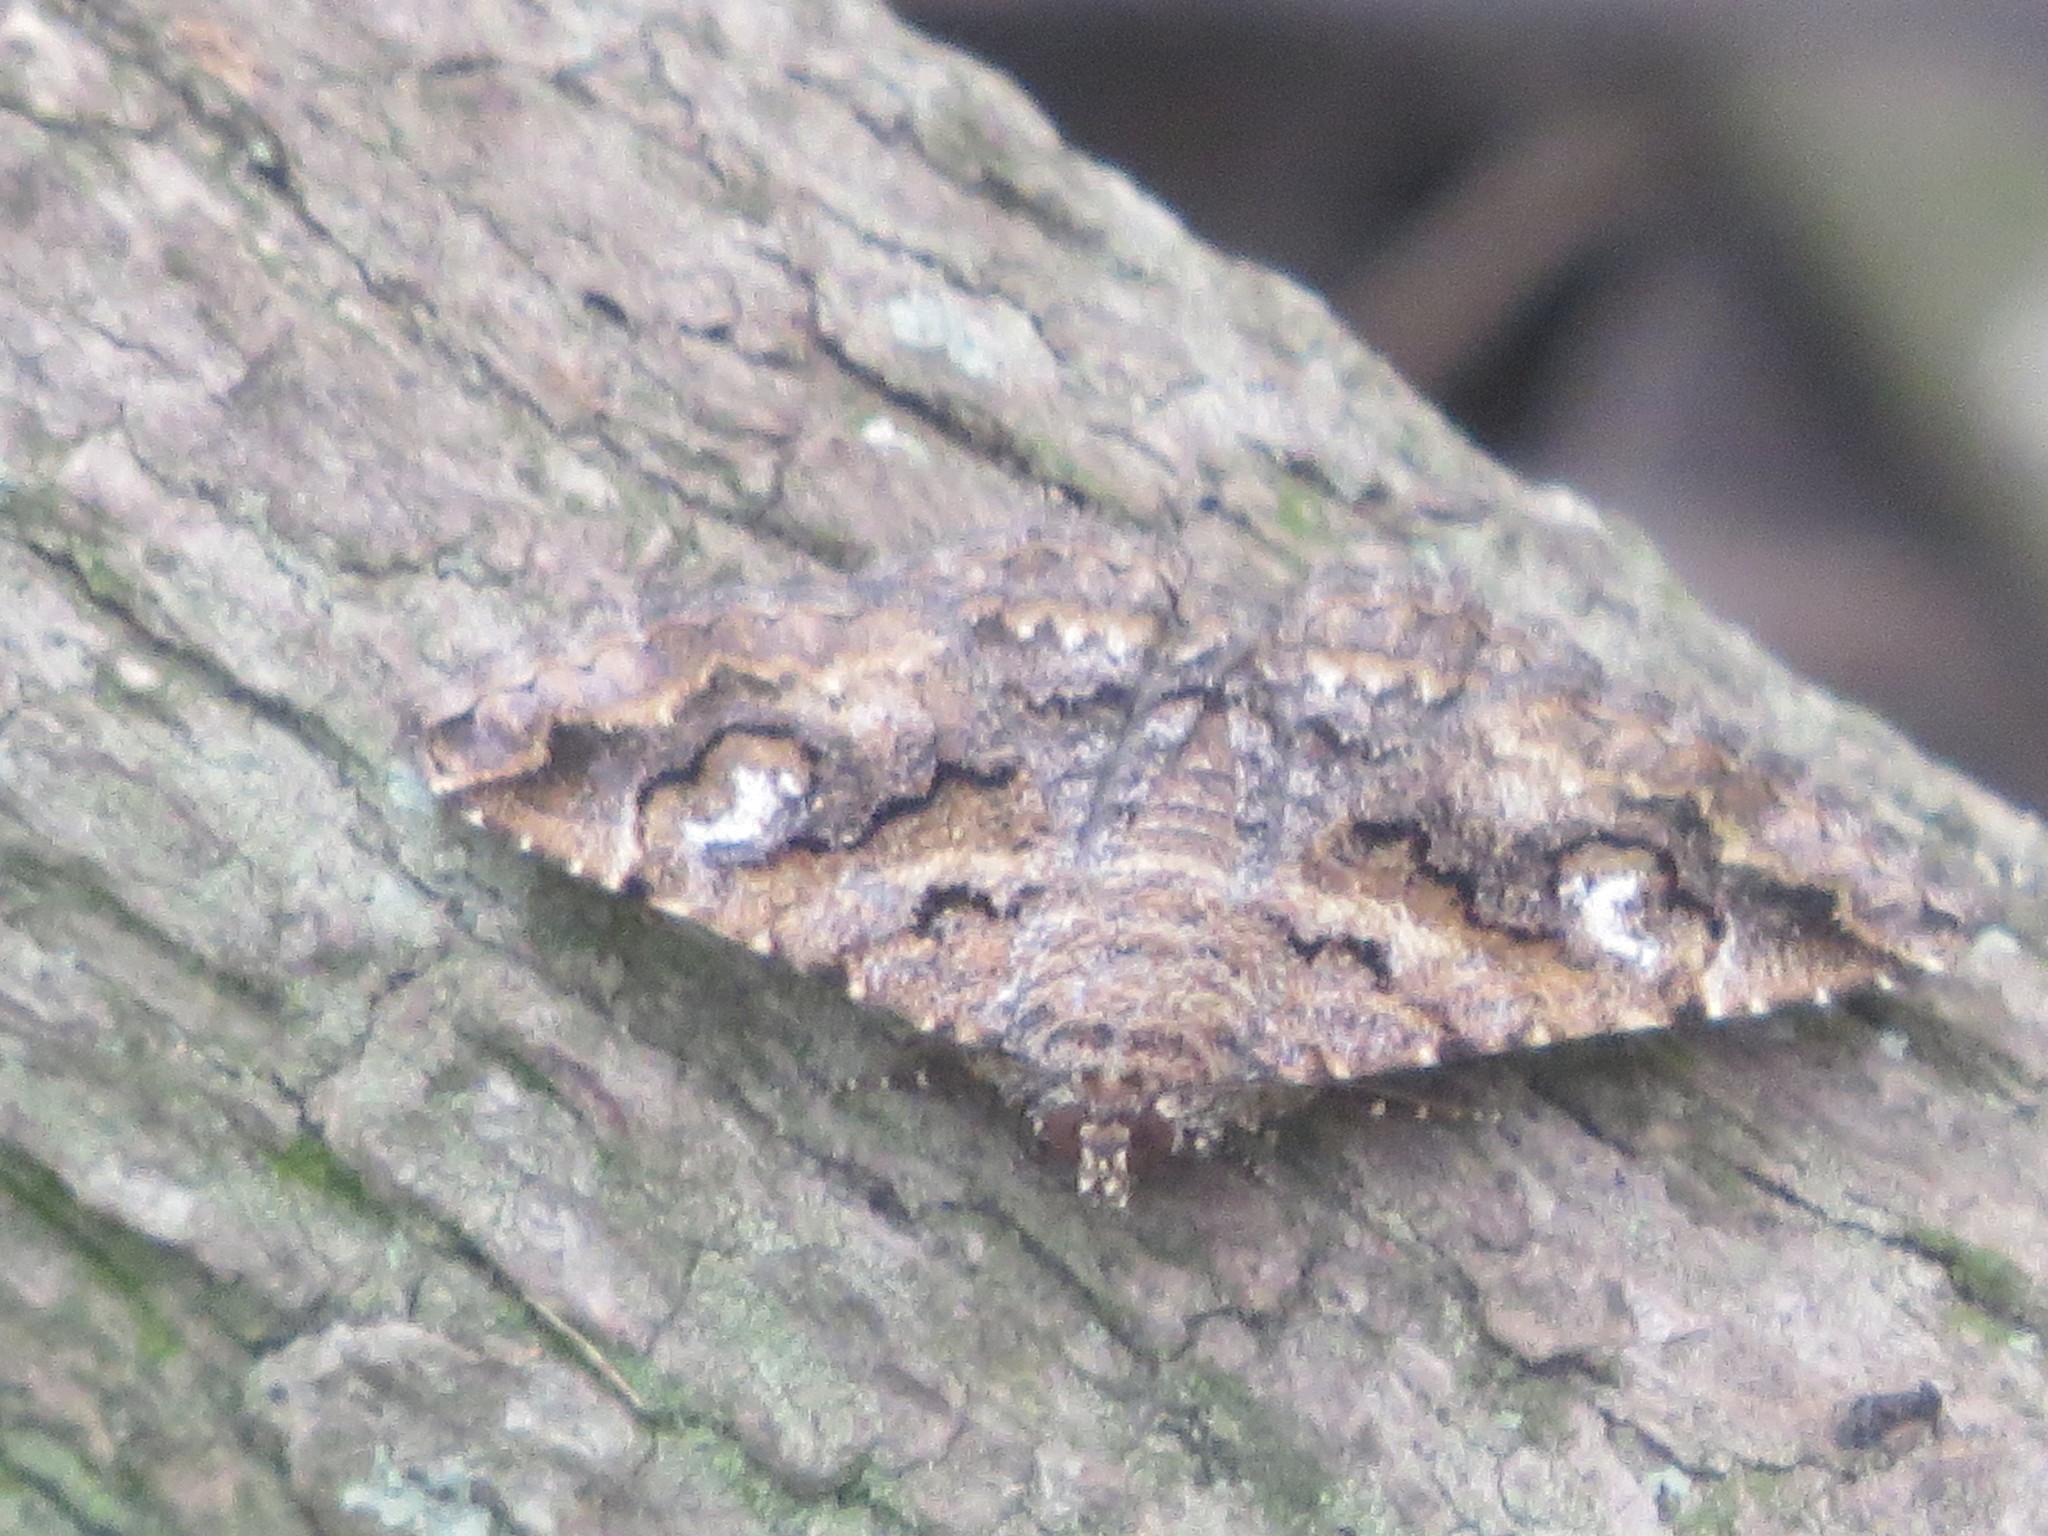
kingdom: Animalia
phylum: Arthropoda
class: Insecta
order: Lepidoptera
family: Erebidae
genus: Toxonprucha
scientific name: Toxonprucha excavata
